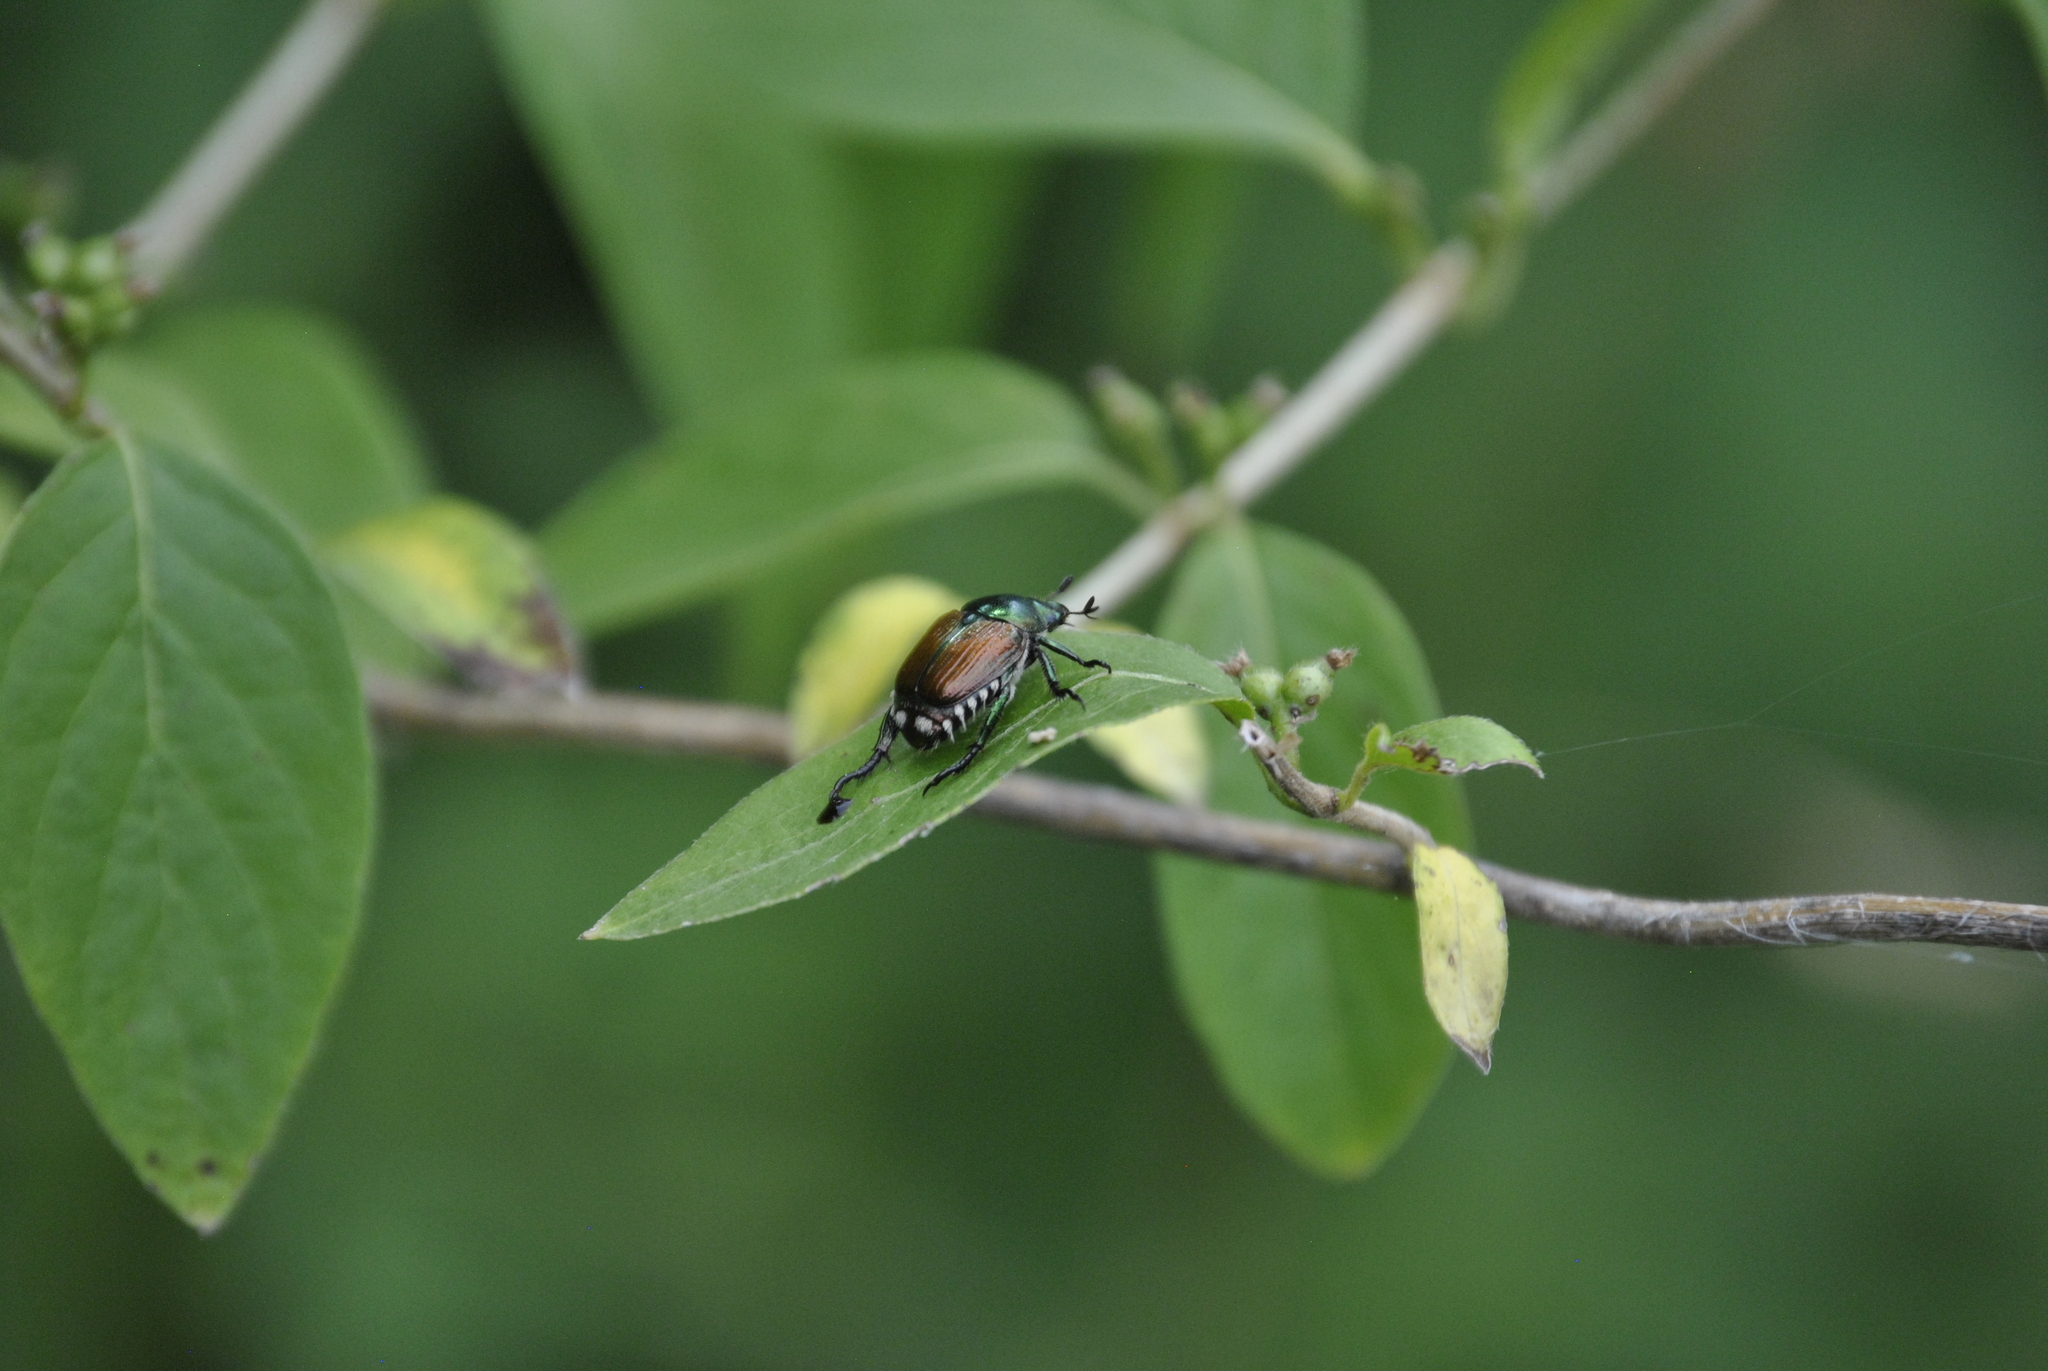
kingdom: Animalia
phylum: Arthropoda
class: Insecta
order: Coleoptera
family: Scarabaeidae
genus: Popillia
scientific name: Popillia japonica
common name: Japanese beetle
